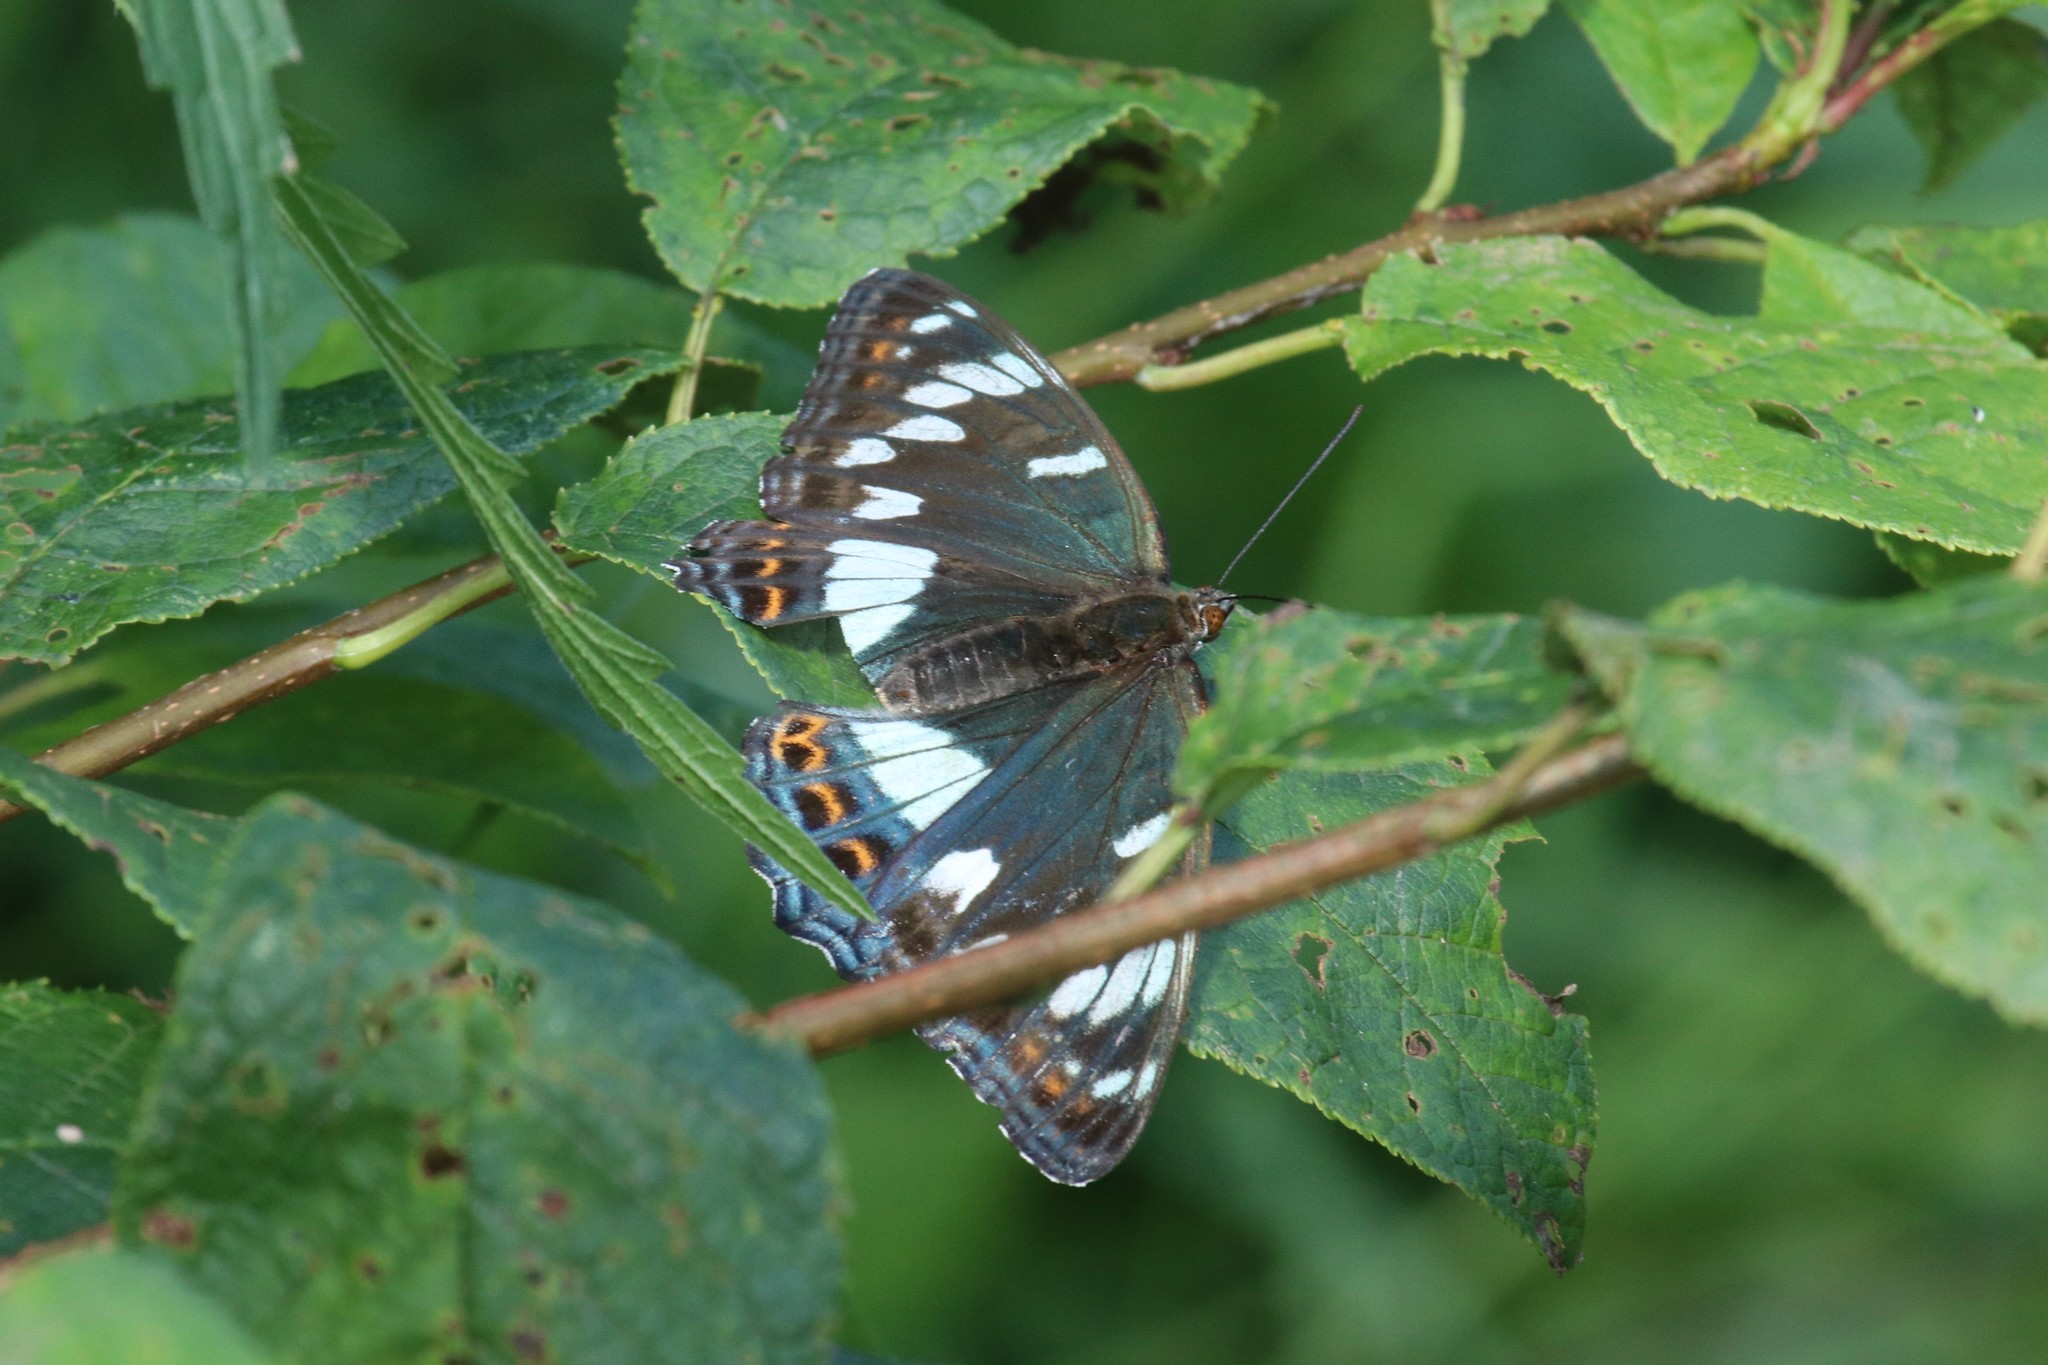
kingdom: Animalia
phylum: Arthropoda
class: Insecta
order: Lepidoptera
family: Nymphalidae
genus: Limenitis
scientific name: Limenitis populi
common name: Poplar admiral
